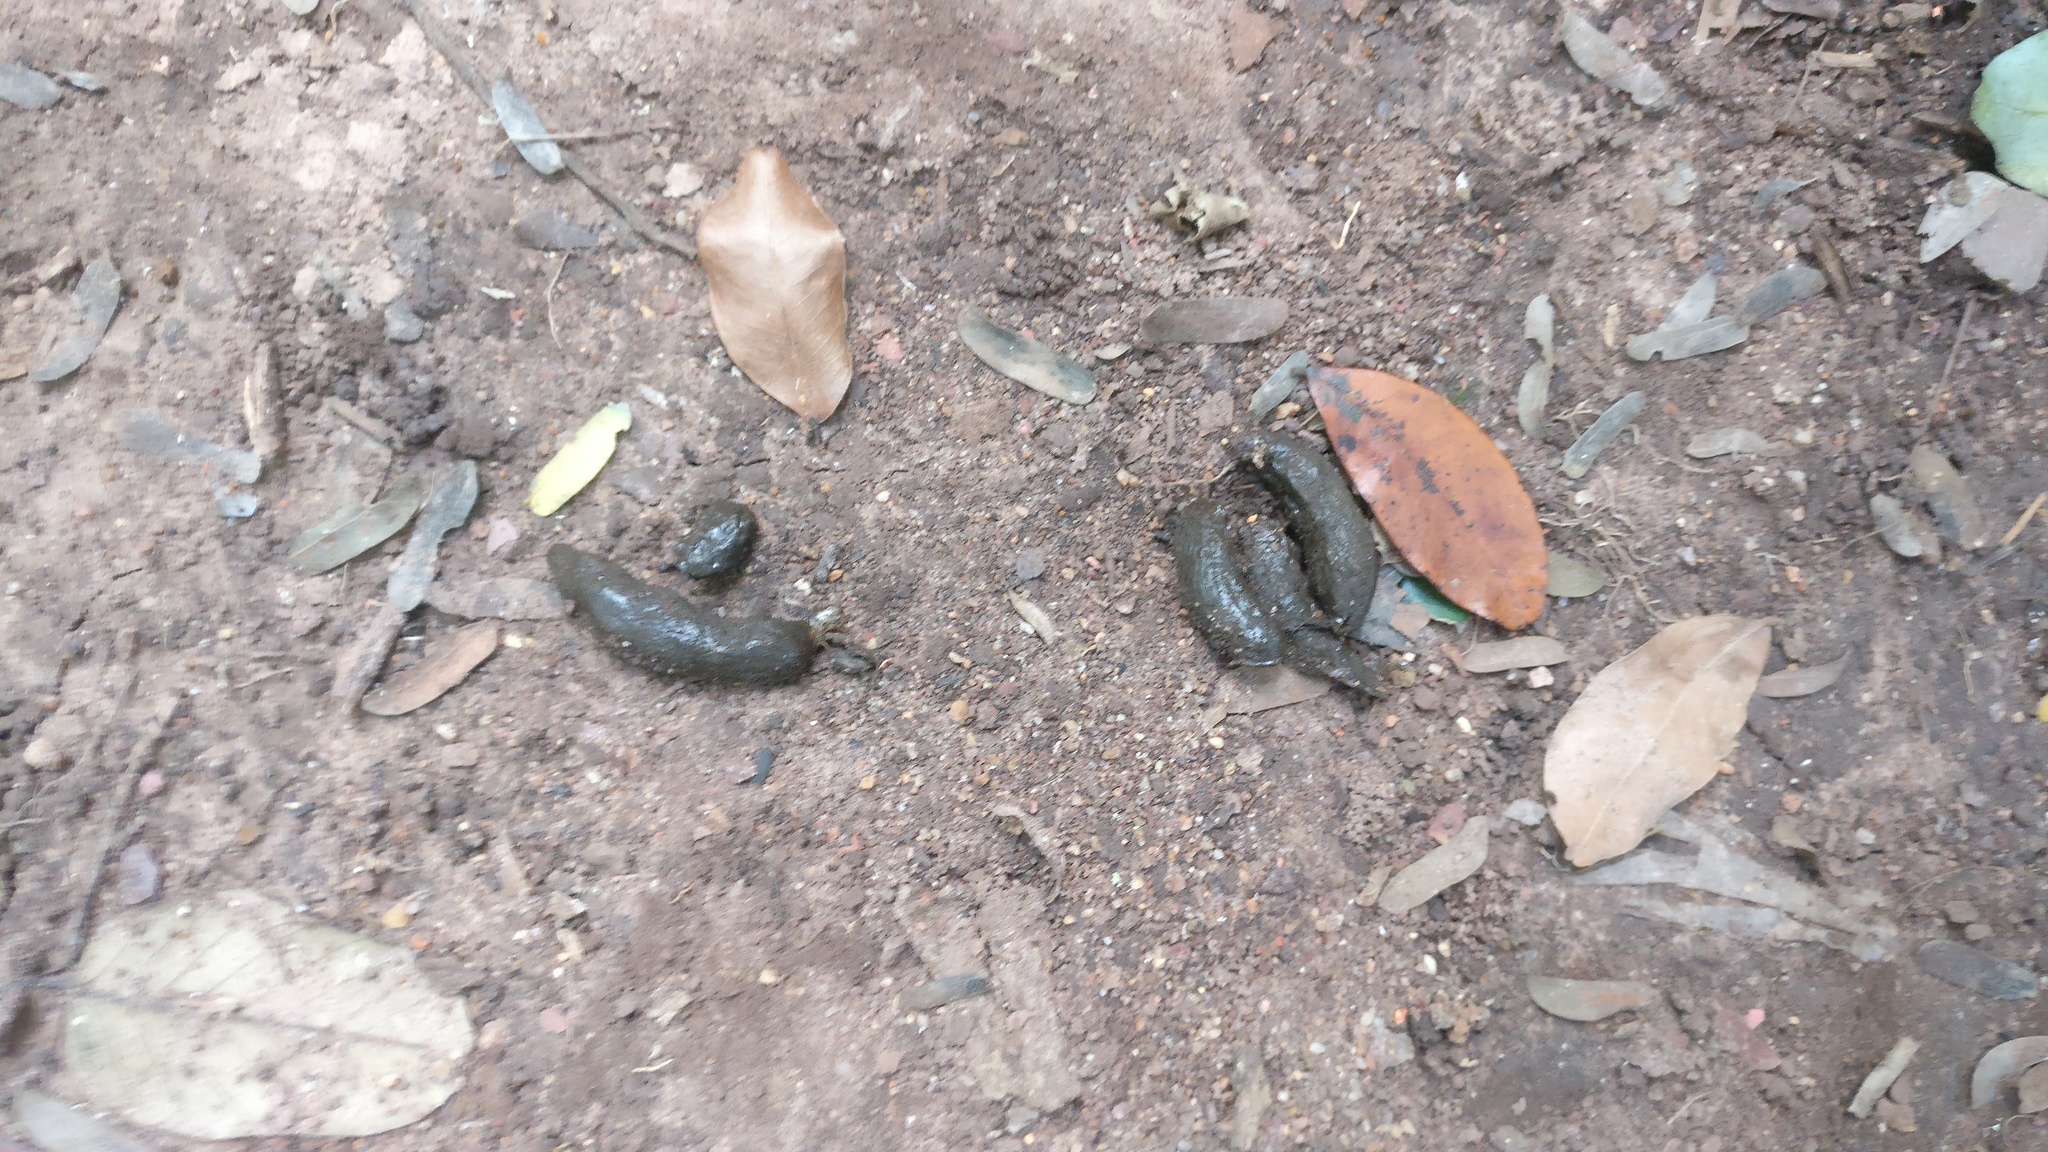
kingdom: Animalia
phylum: Chordata
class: Mammalia
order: Rodentia
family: Hystricidae
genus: Hystrix
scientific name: Hystrix indica
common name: Indian crested porcupine
